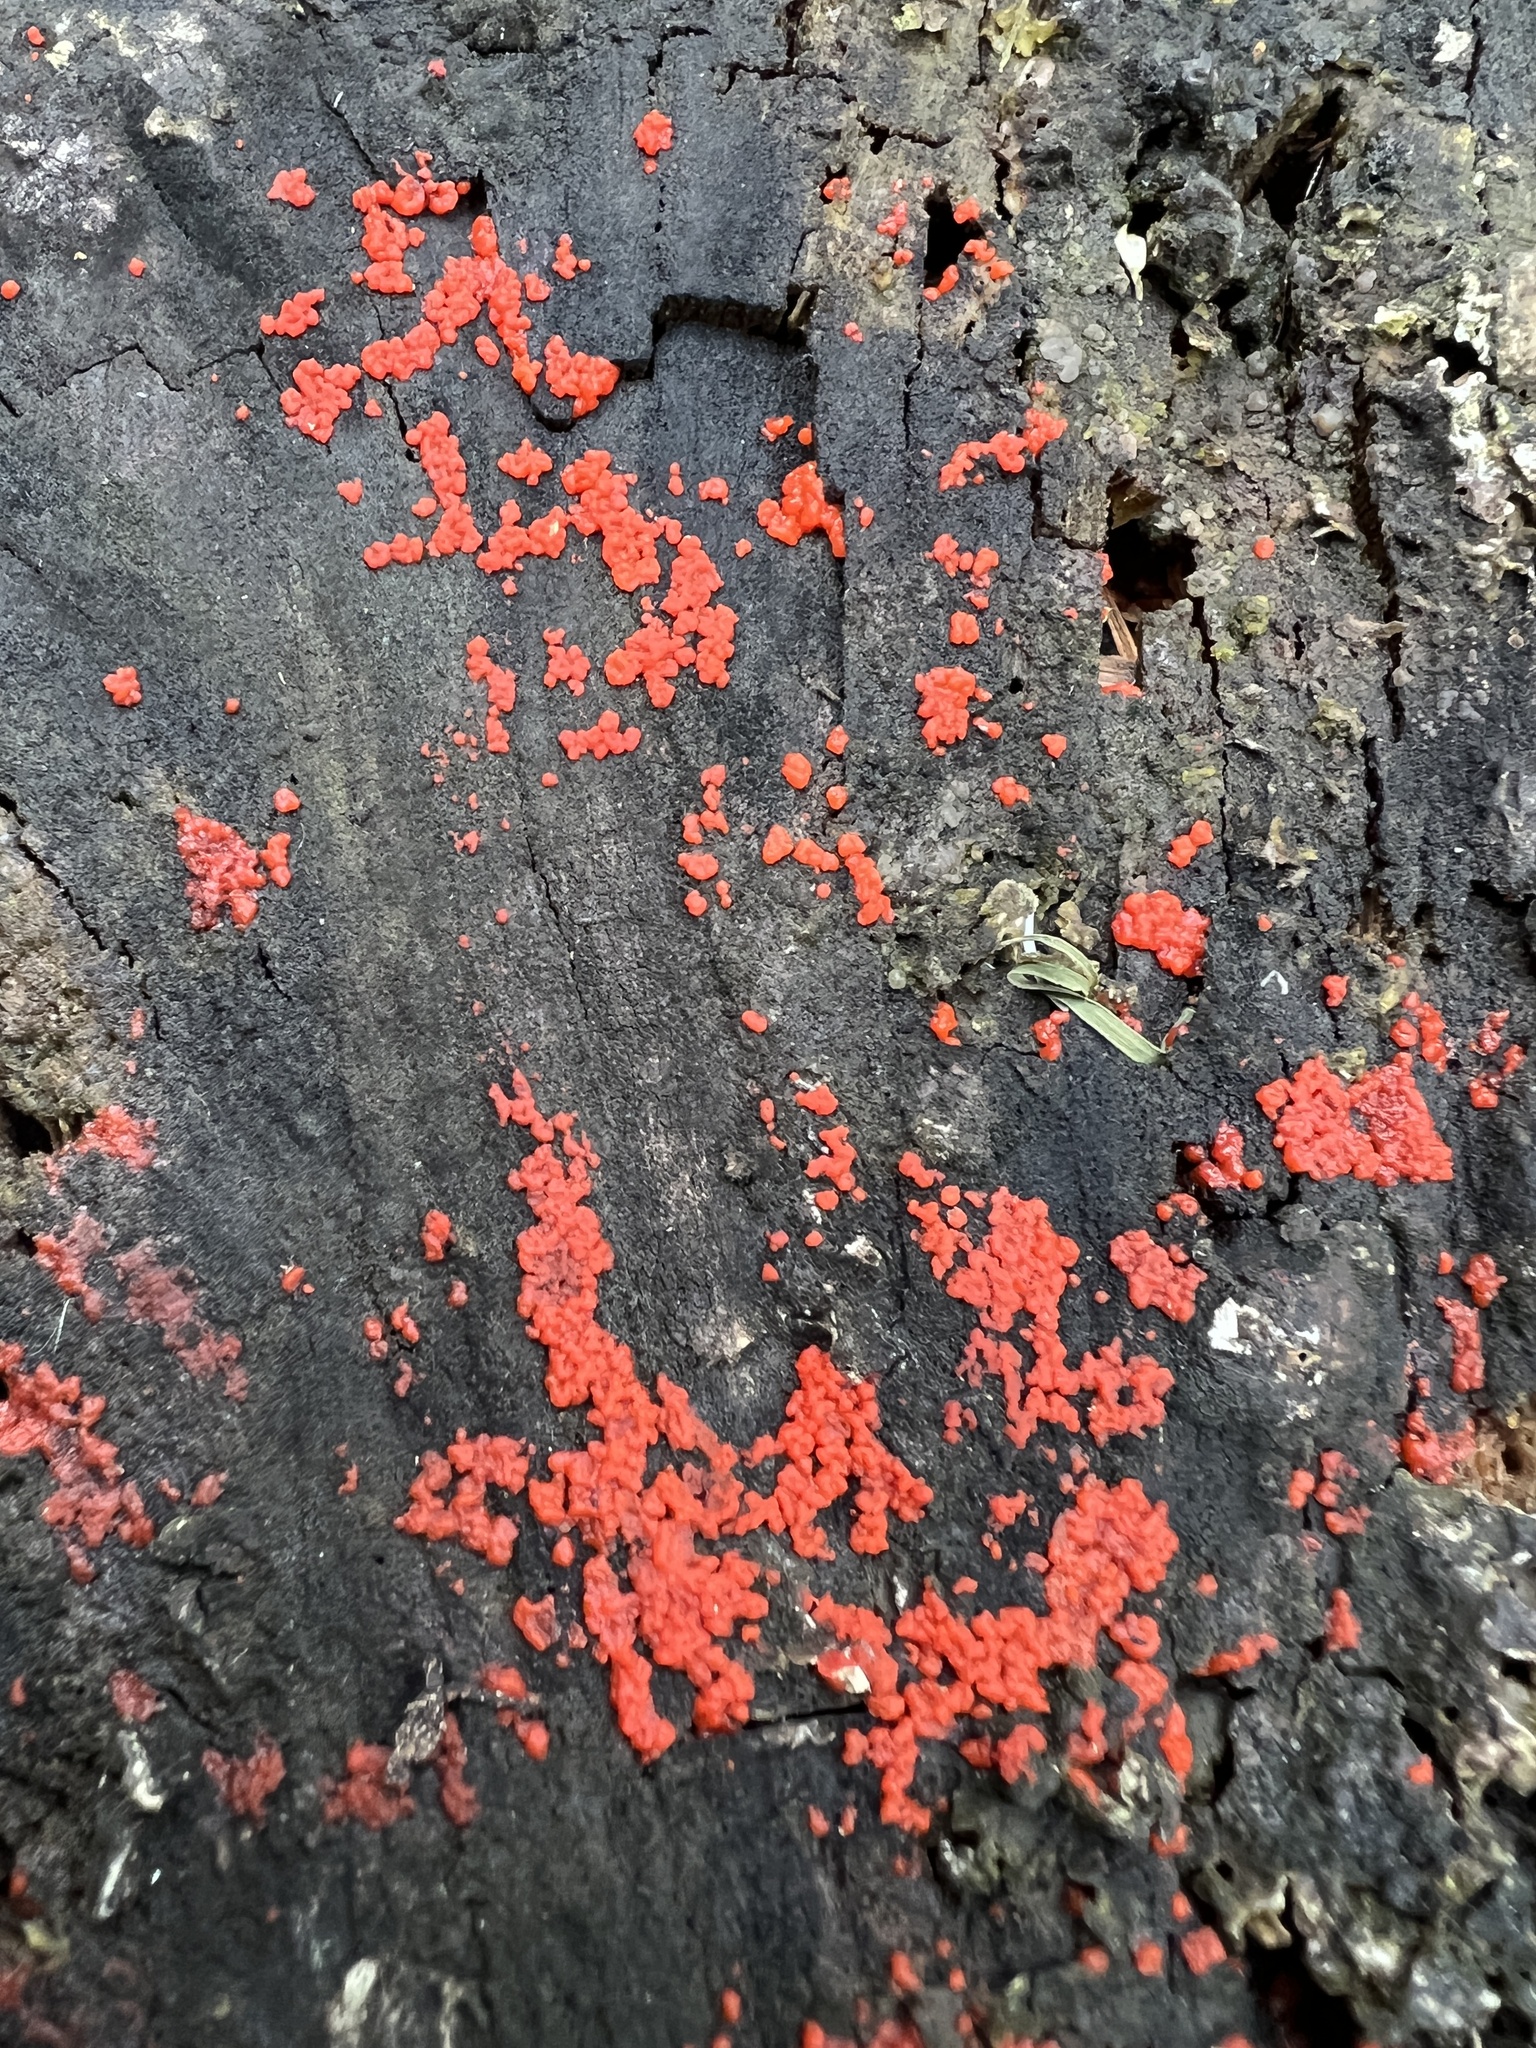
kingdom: Fungi
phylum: Basidiomycota
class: Agaricomycetes
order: Cantharellales
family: Tulasnellaceae
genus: Tulasnella
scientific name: Tulasnella aurantiaca
